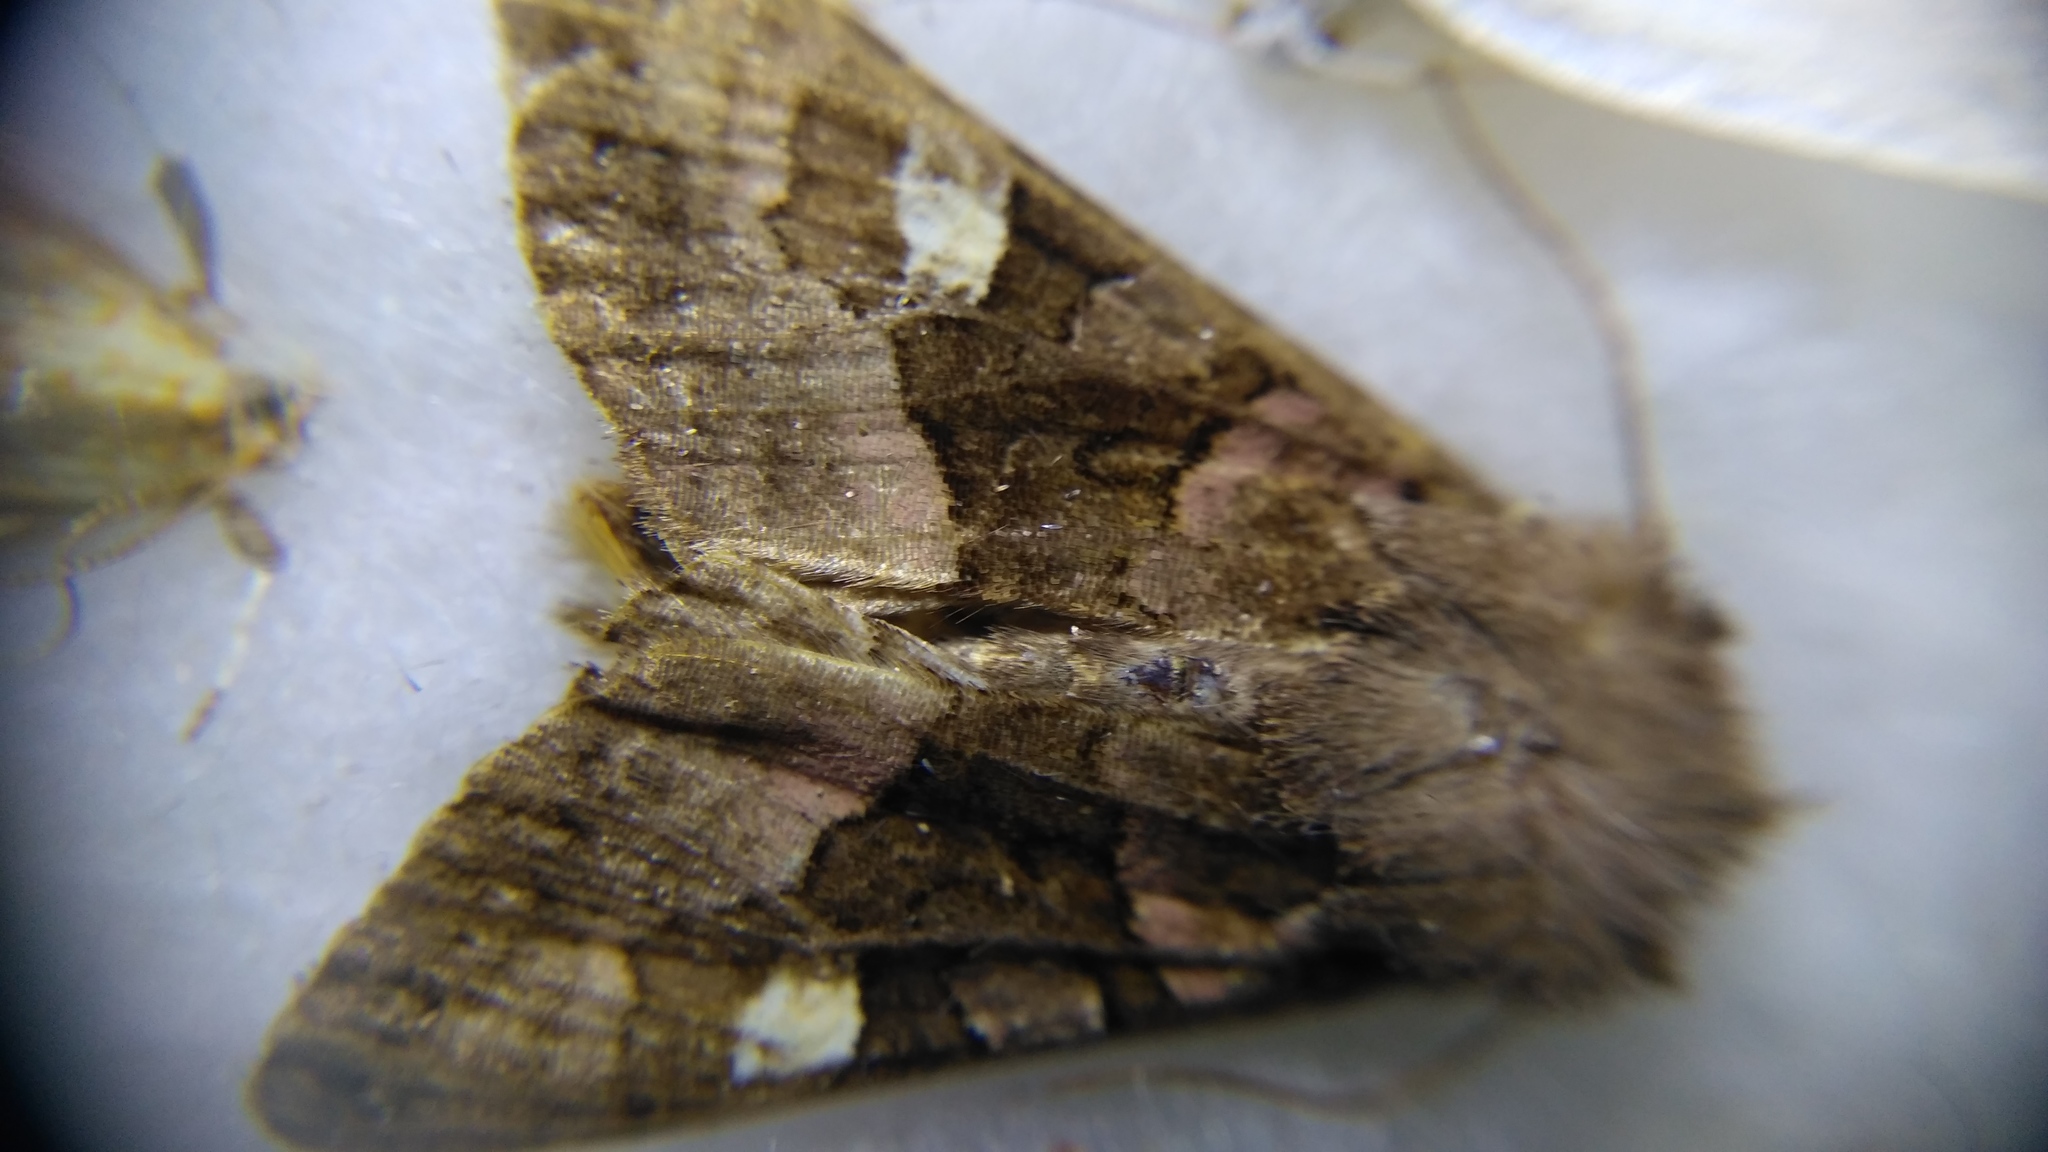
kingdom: Animalia
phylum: Arthropoda
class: Insecta
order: Lepidoptera
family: Noctuidae
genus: Euplexia
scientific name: Euplexia lucipara
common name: Small angle shades
